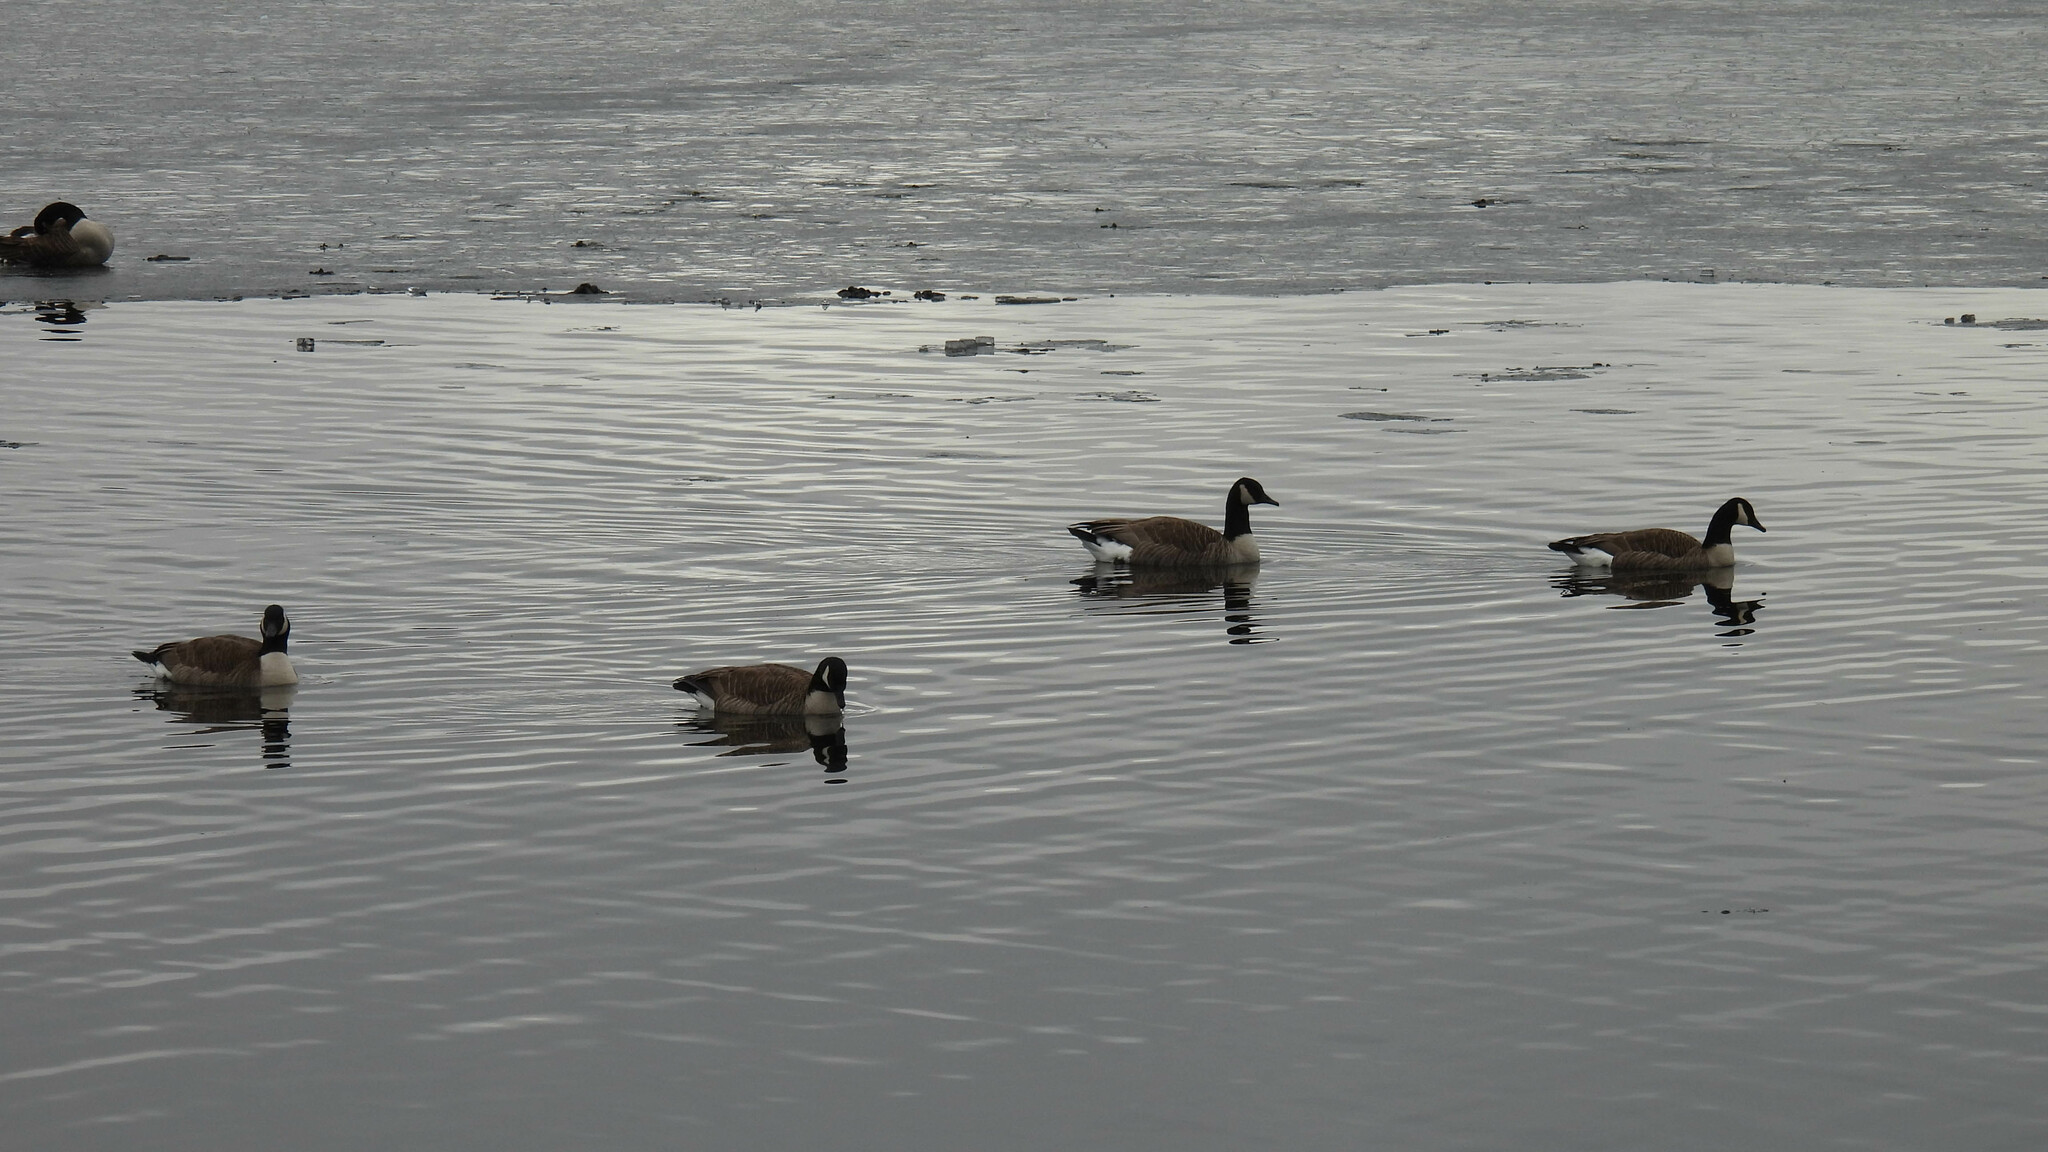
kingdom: Animalia
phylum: Chordata
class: Aves
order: Anseriformes
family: Anatidae
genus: Branta
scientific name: Branta canadensis
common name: Canada goose
